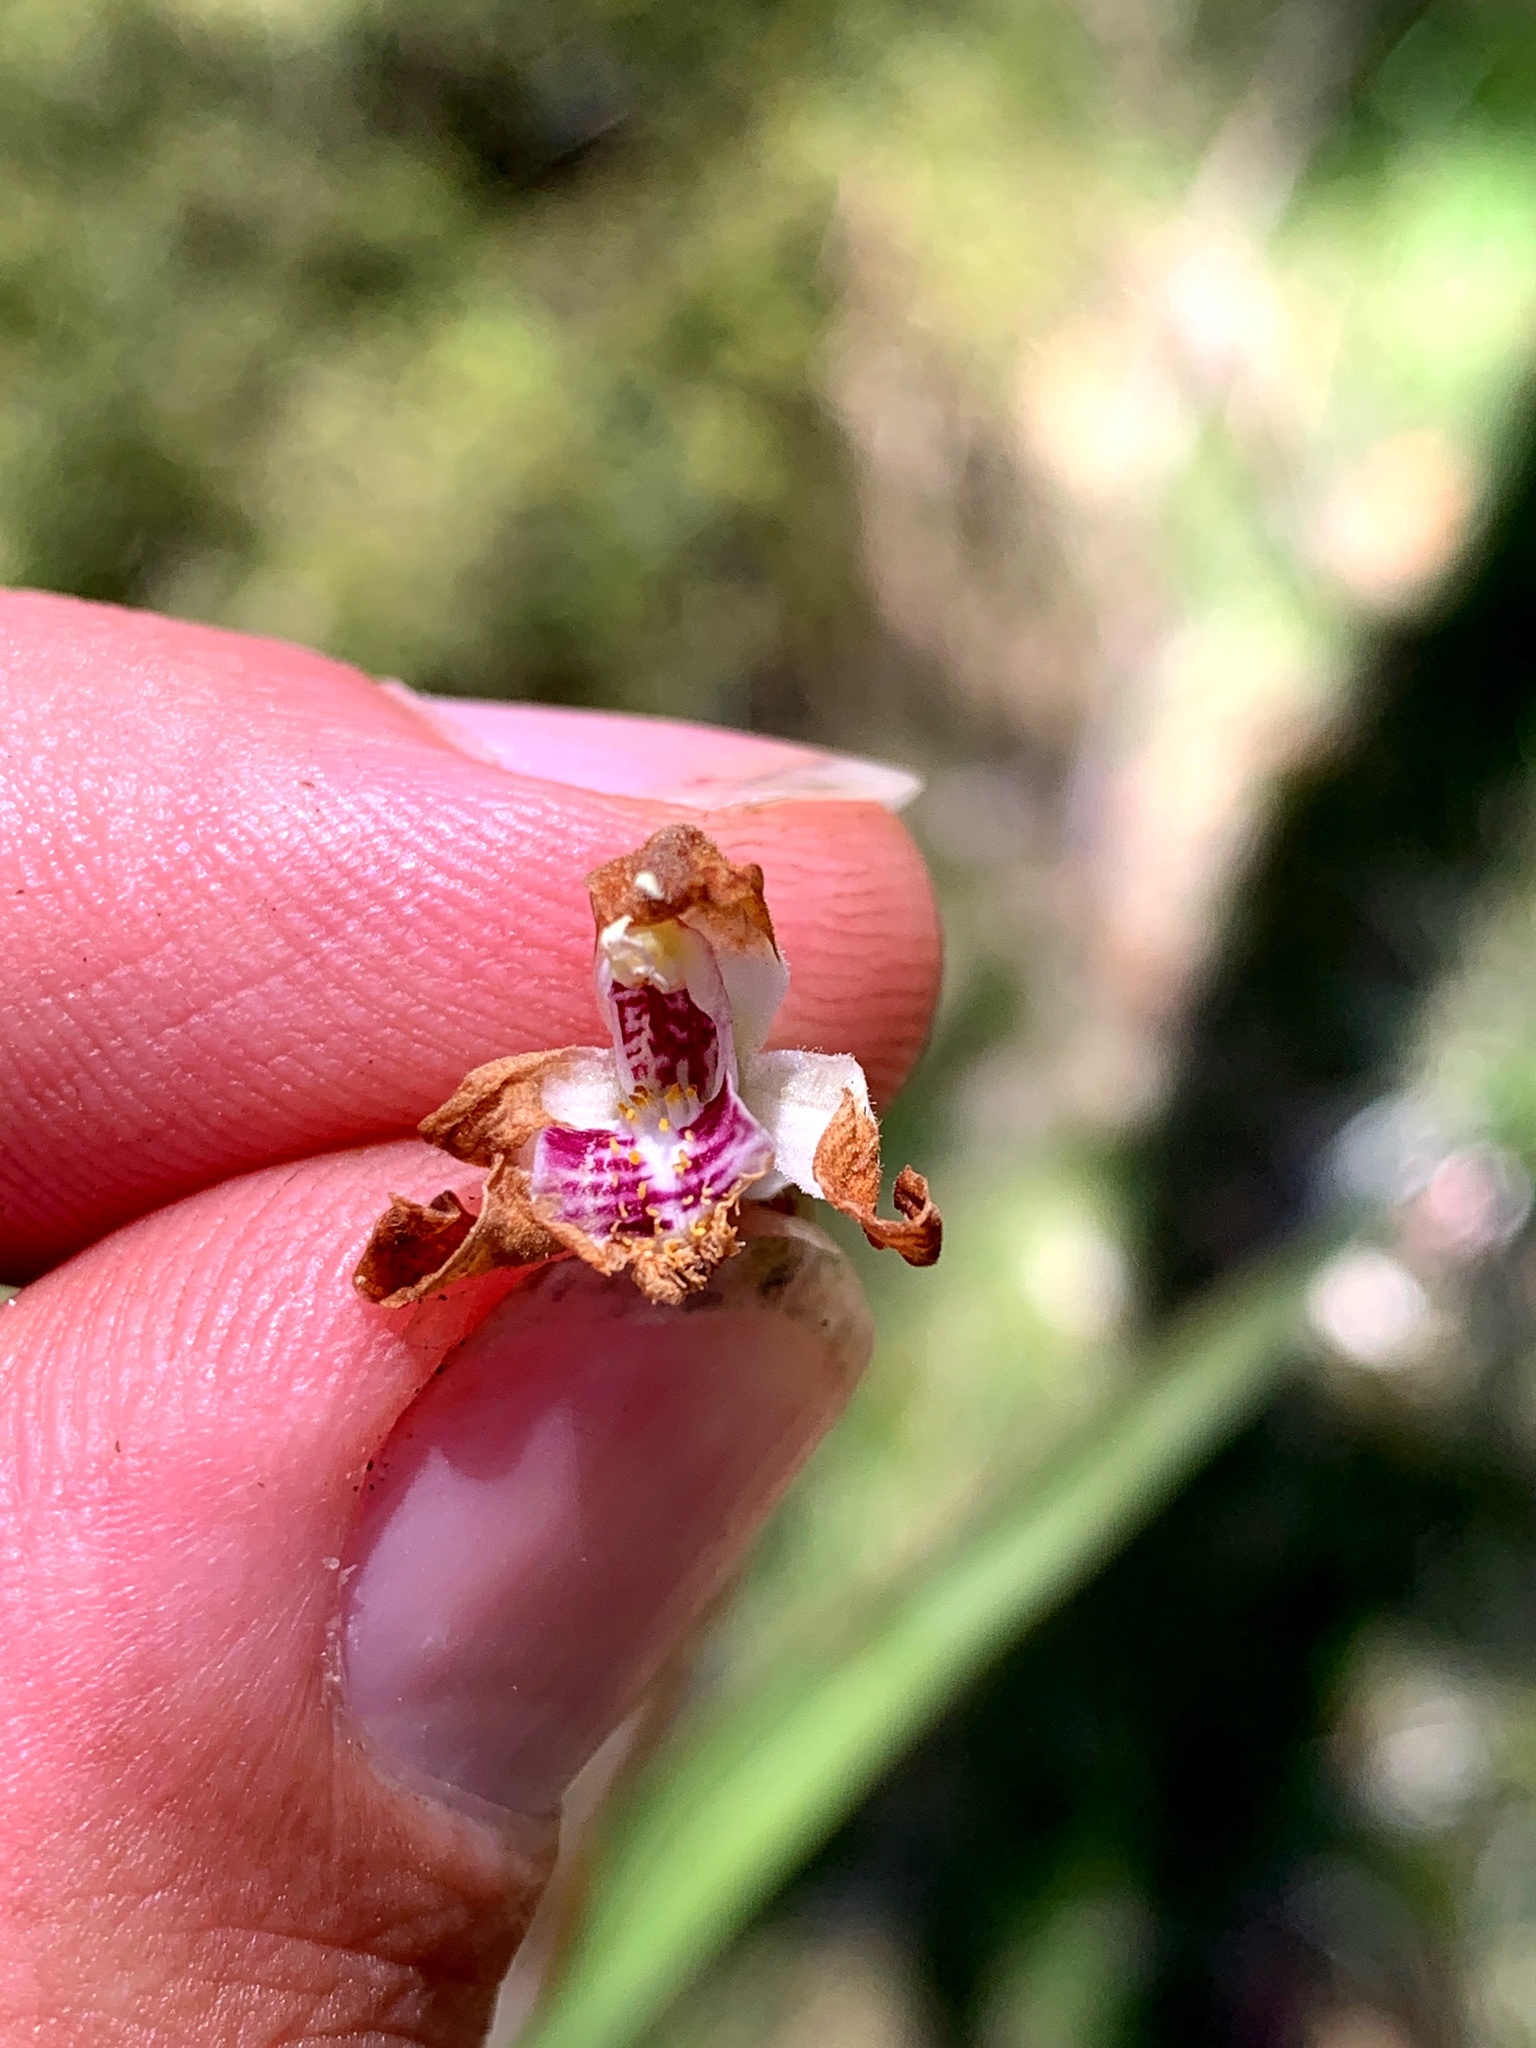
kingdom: Plantae
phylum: Tracheophyta
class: Liliopsida
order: Asparagales
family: Orchidaceae
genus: Caladenia
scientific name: Caladenia alpina
